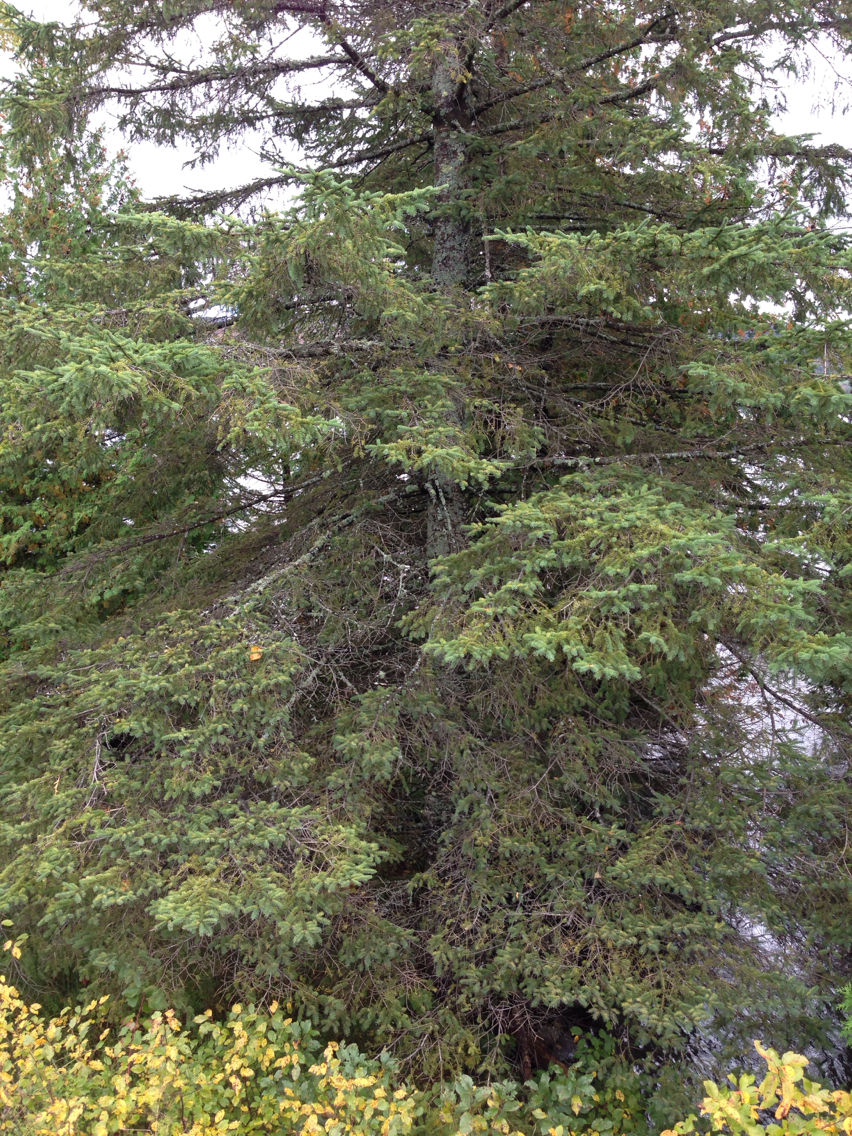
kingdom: Plantae
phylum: Tracheophyta
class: Pinopsida
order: Pinales
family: Pinaceae
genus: Abies
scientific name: Abies balsamea
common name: Balsam fir
